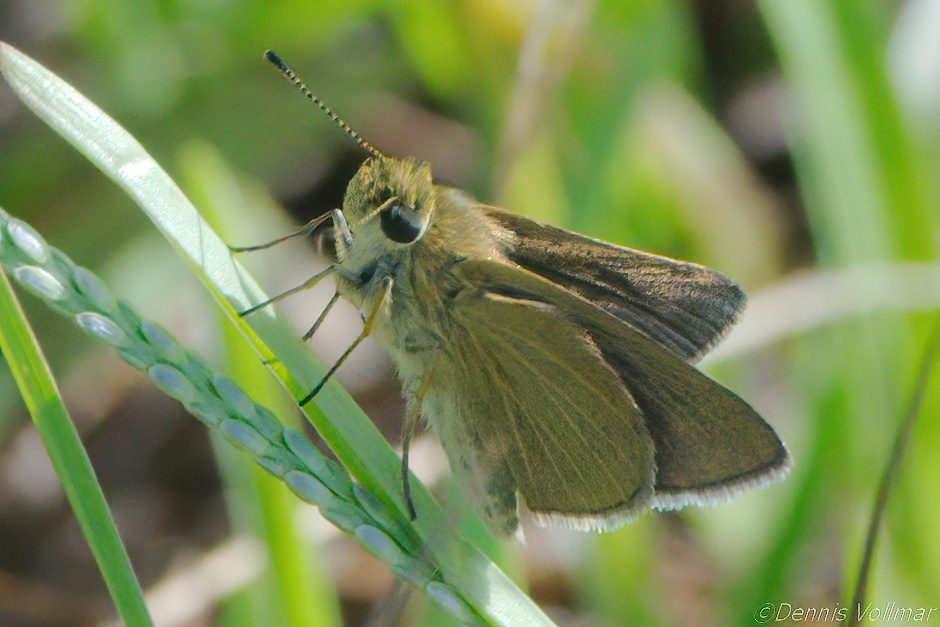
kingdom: Animalia
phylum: Arthropoda
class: Insecta
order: Lepidoptera
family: Hesperiidae
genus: Nastra
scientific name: Nastra lherminier
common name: Swarthy skipper
